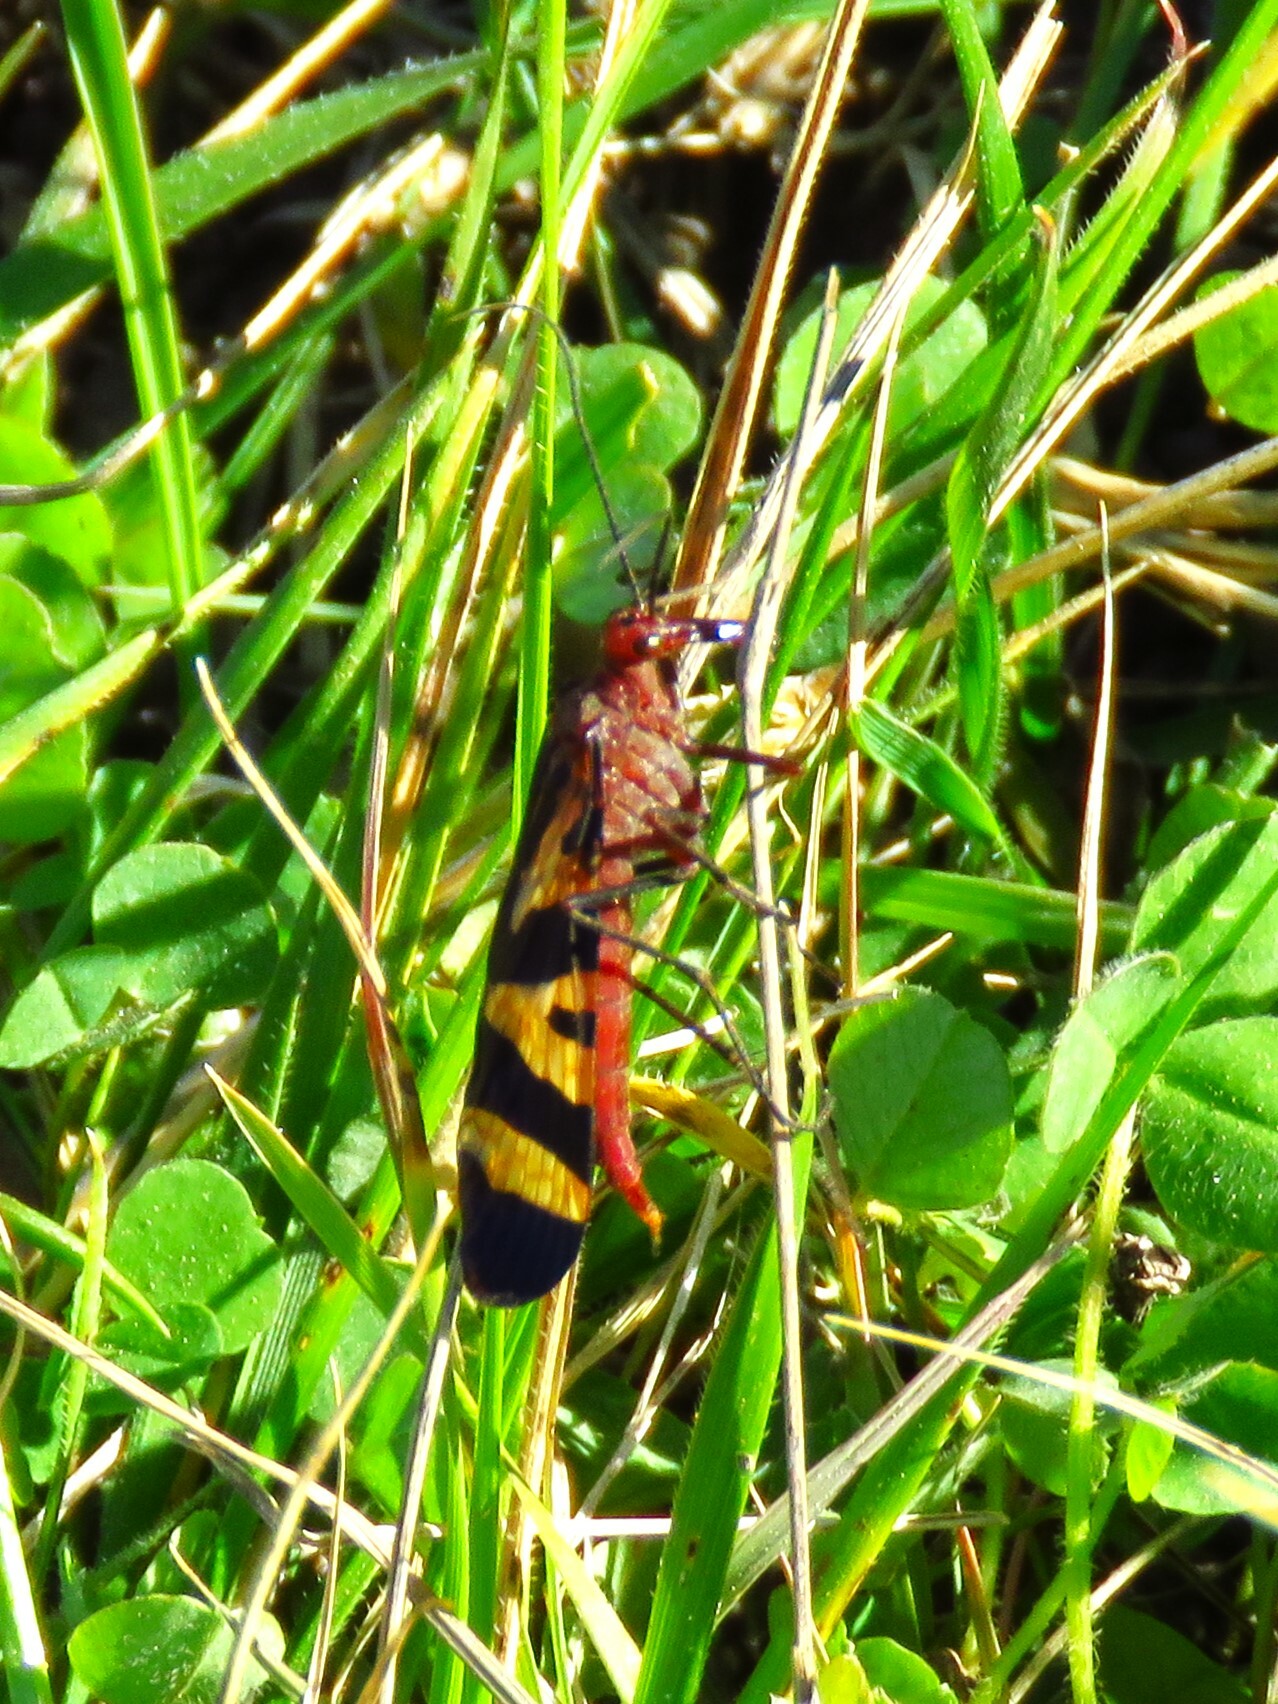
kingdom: Animalia
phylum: Arthropoda
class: Insecta
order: Mecoptera
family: Panorpidae
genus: Panorpa
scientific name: Panorpa nuptialis
